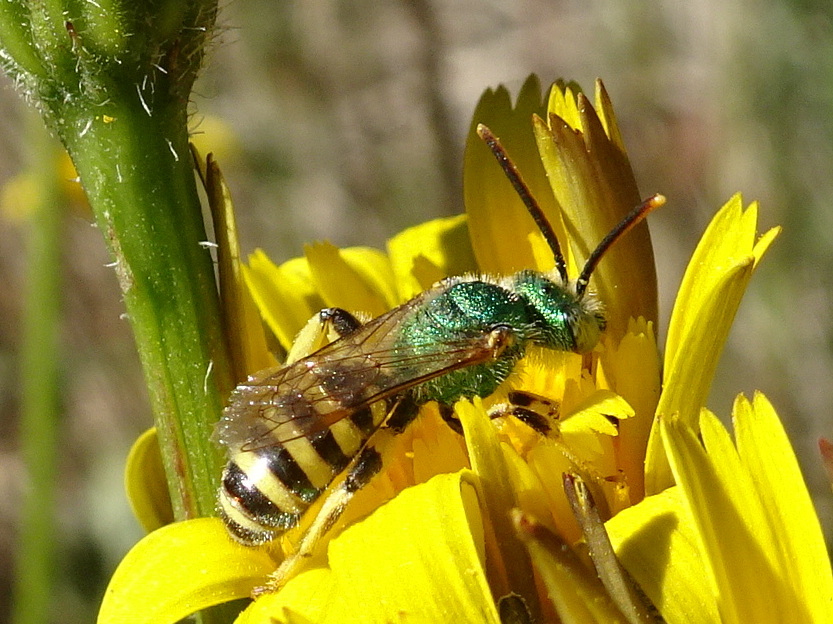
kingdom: Animalia
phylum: Arthropoda
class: Insecta
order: Hymenoptera
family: Halictidae
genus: Agapostemon
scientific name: Agapostemon texanus
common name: Texas striped sweat bee
